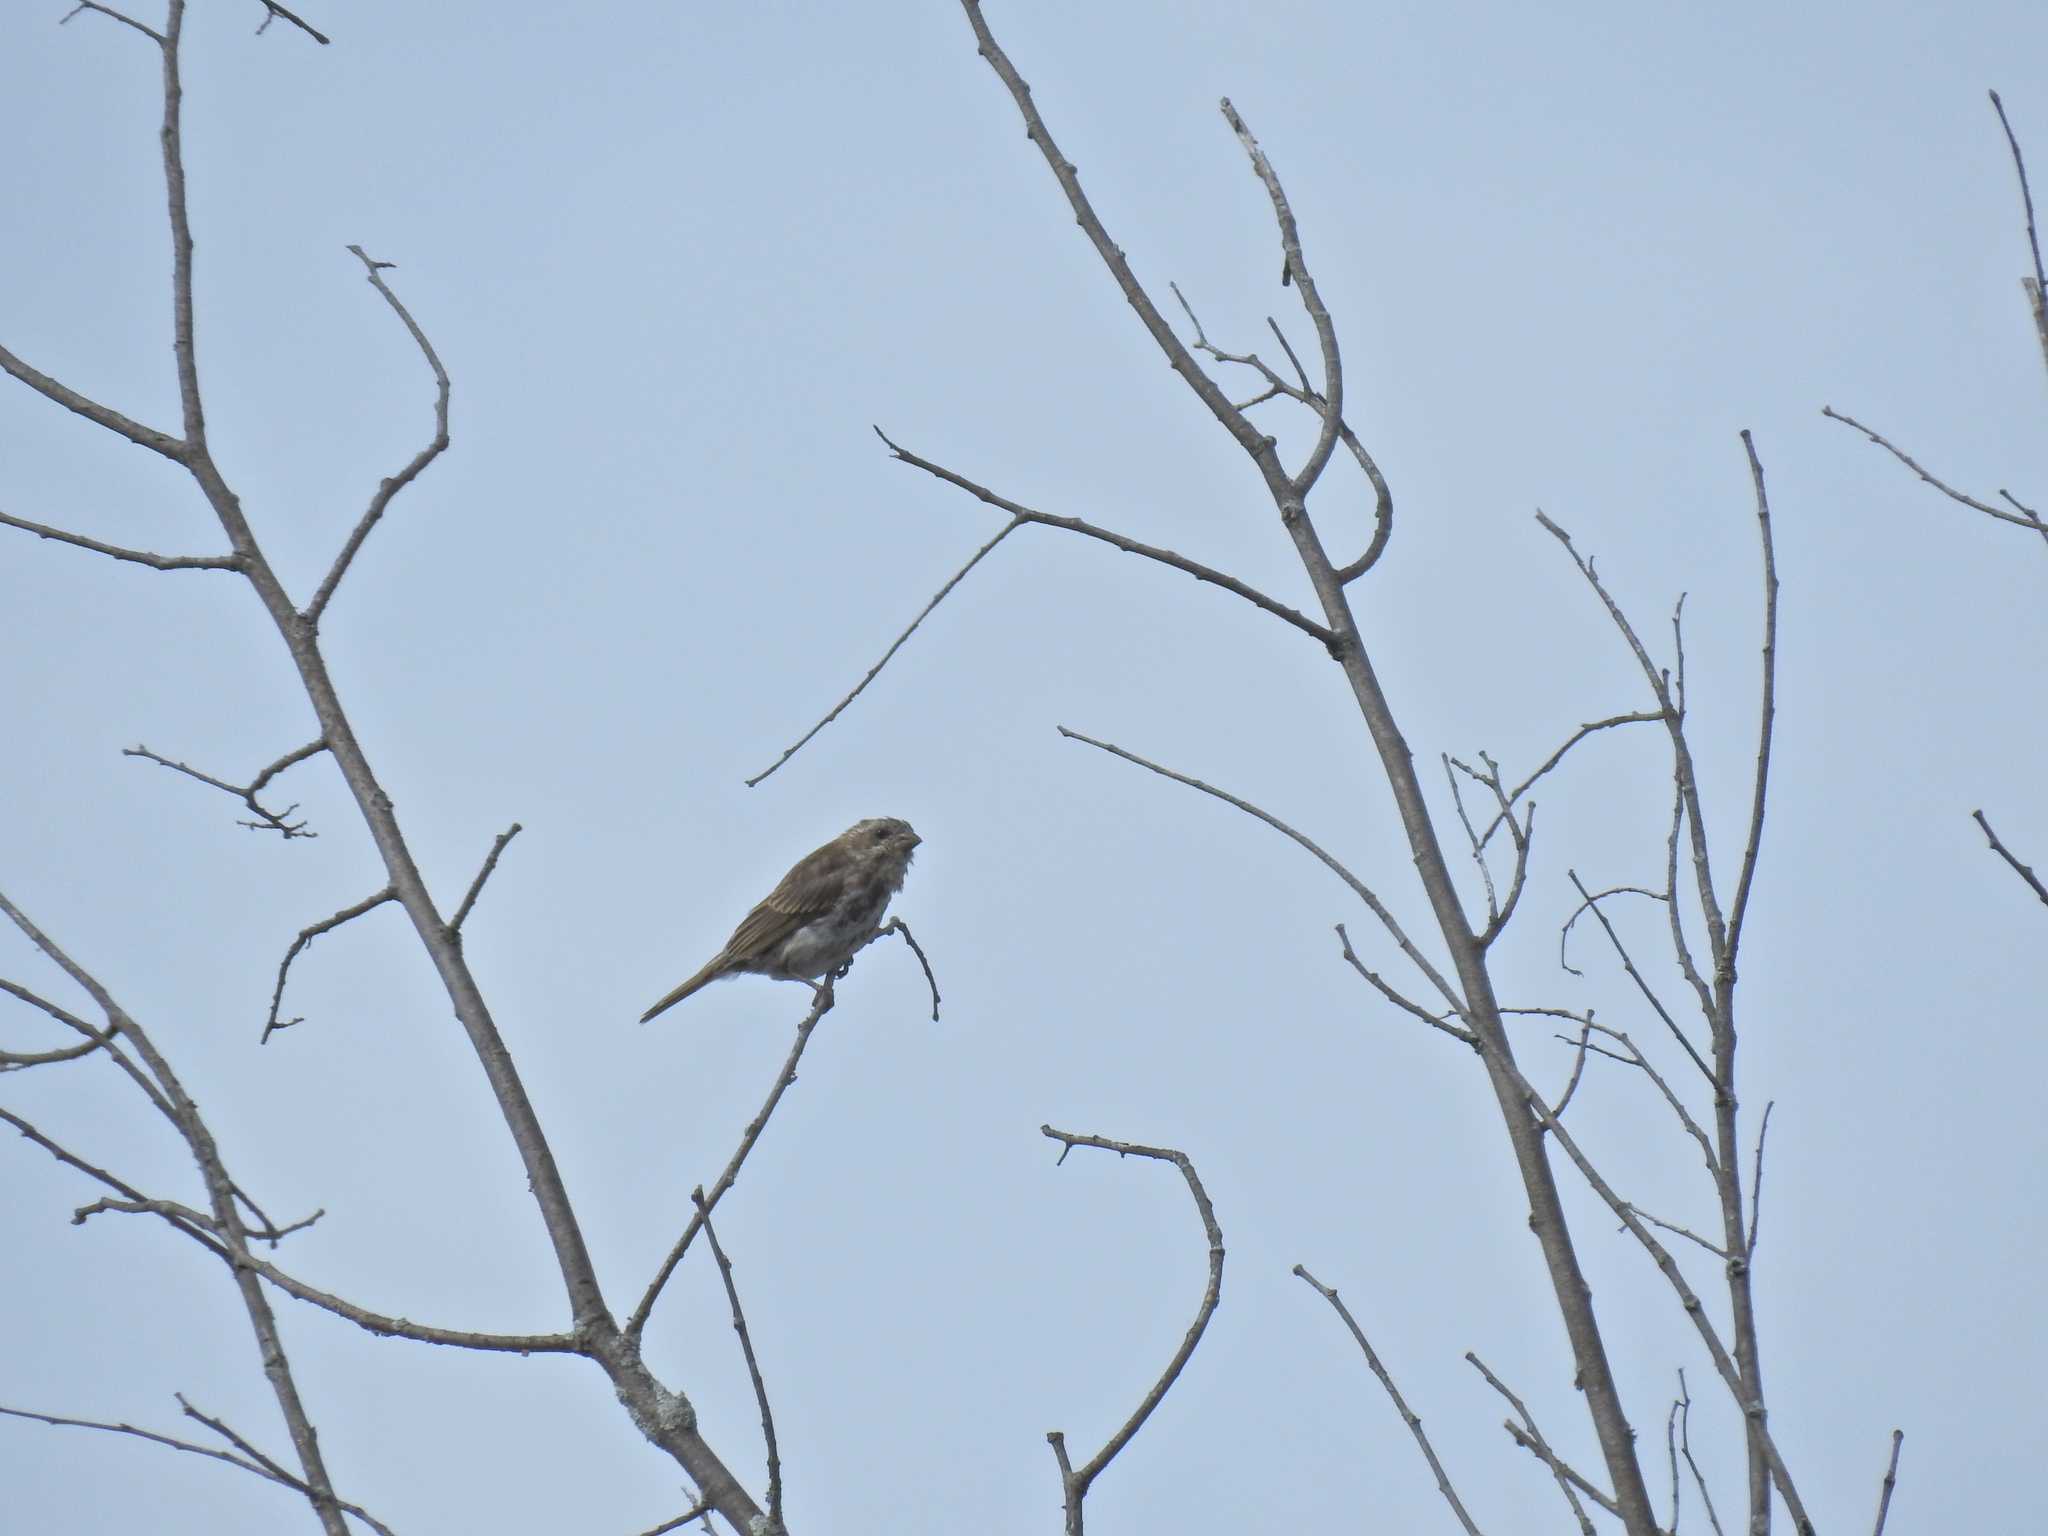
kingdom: Animalia
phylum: Chordata
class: Aves
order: Passeriformes
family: Fringillidae
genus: Haemorhous
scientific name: Haemorhous purpureus
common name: Purple finch
